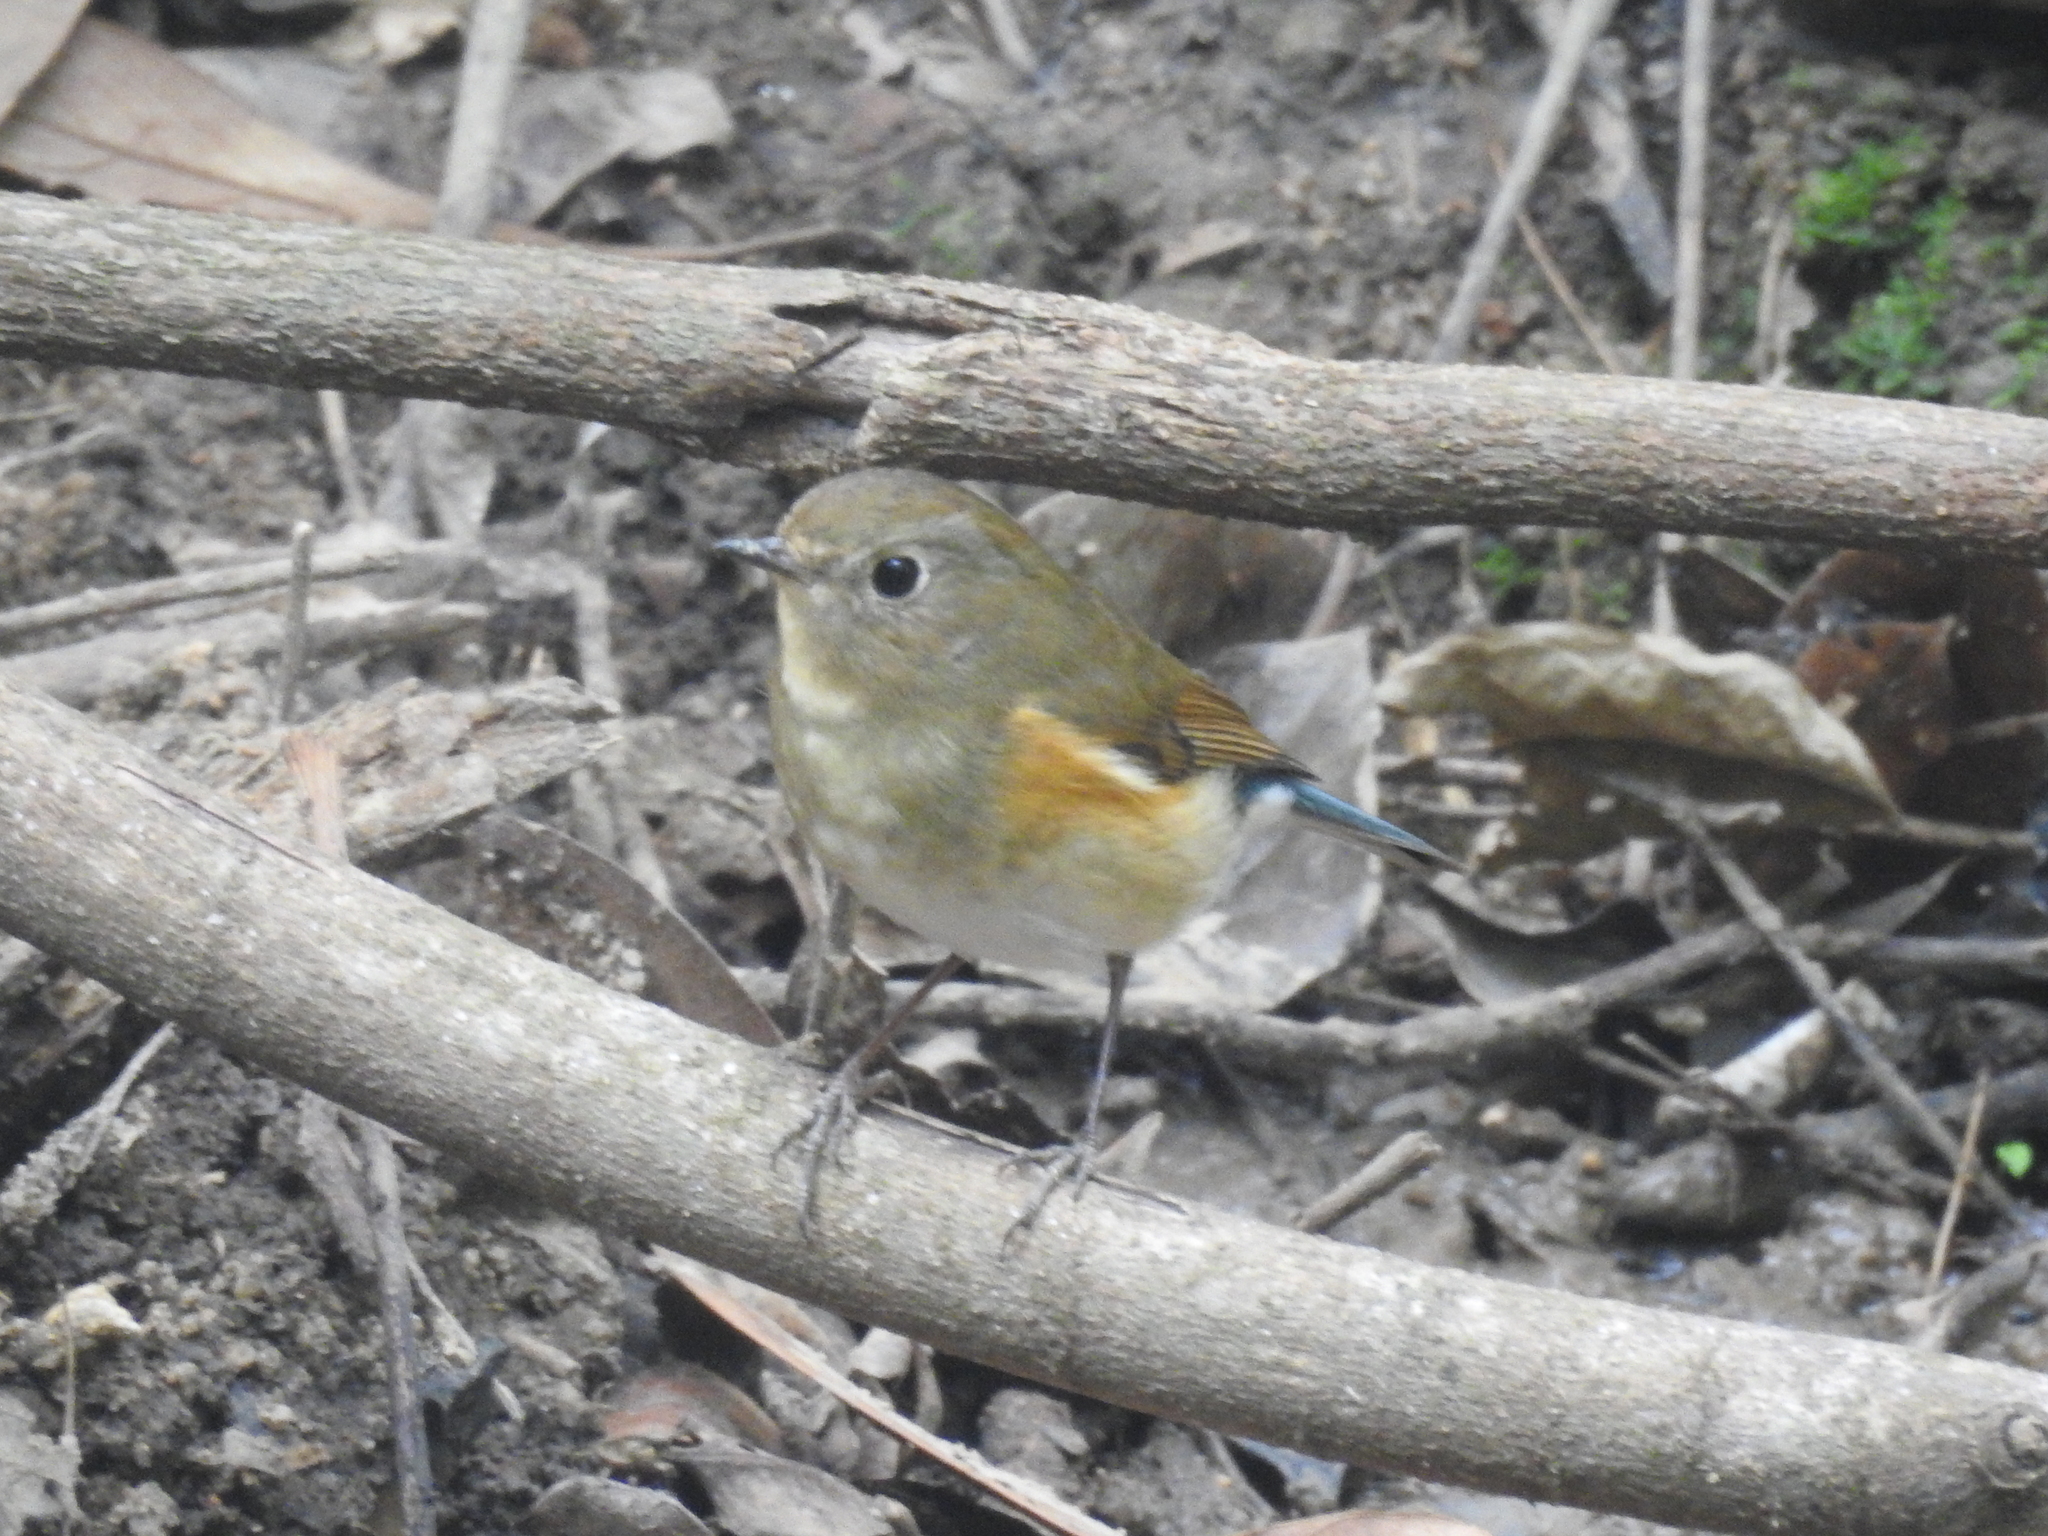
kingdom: Animalia
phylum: Chordata
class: Aves
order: Passeriformes
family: Muscicapidae
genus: Tarsiger
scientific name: Tarsiger cyanurus
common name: Red-flanked bluetail
